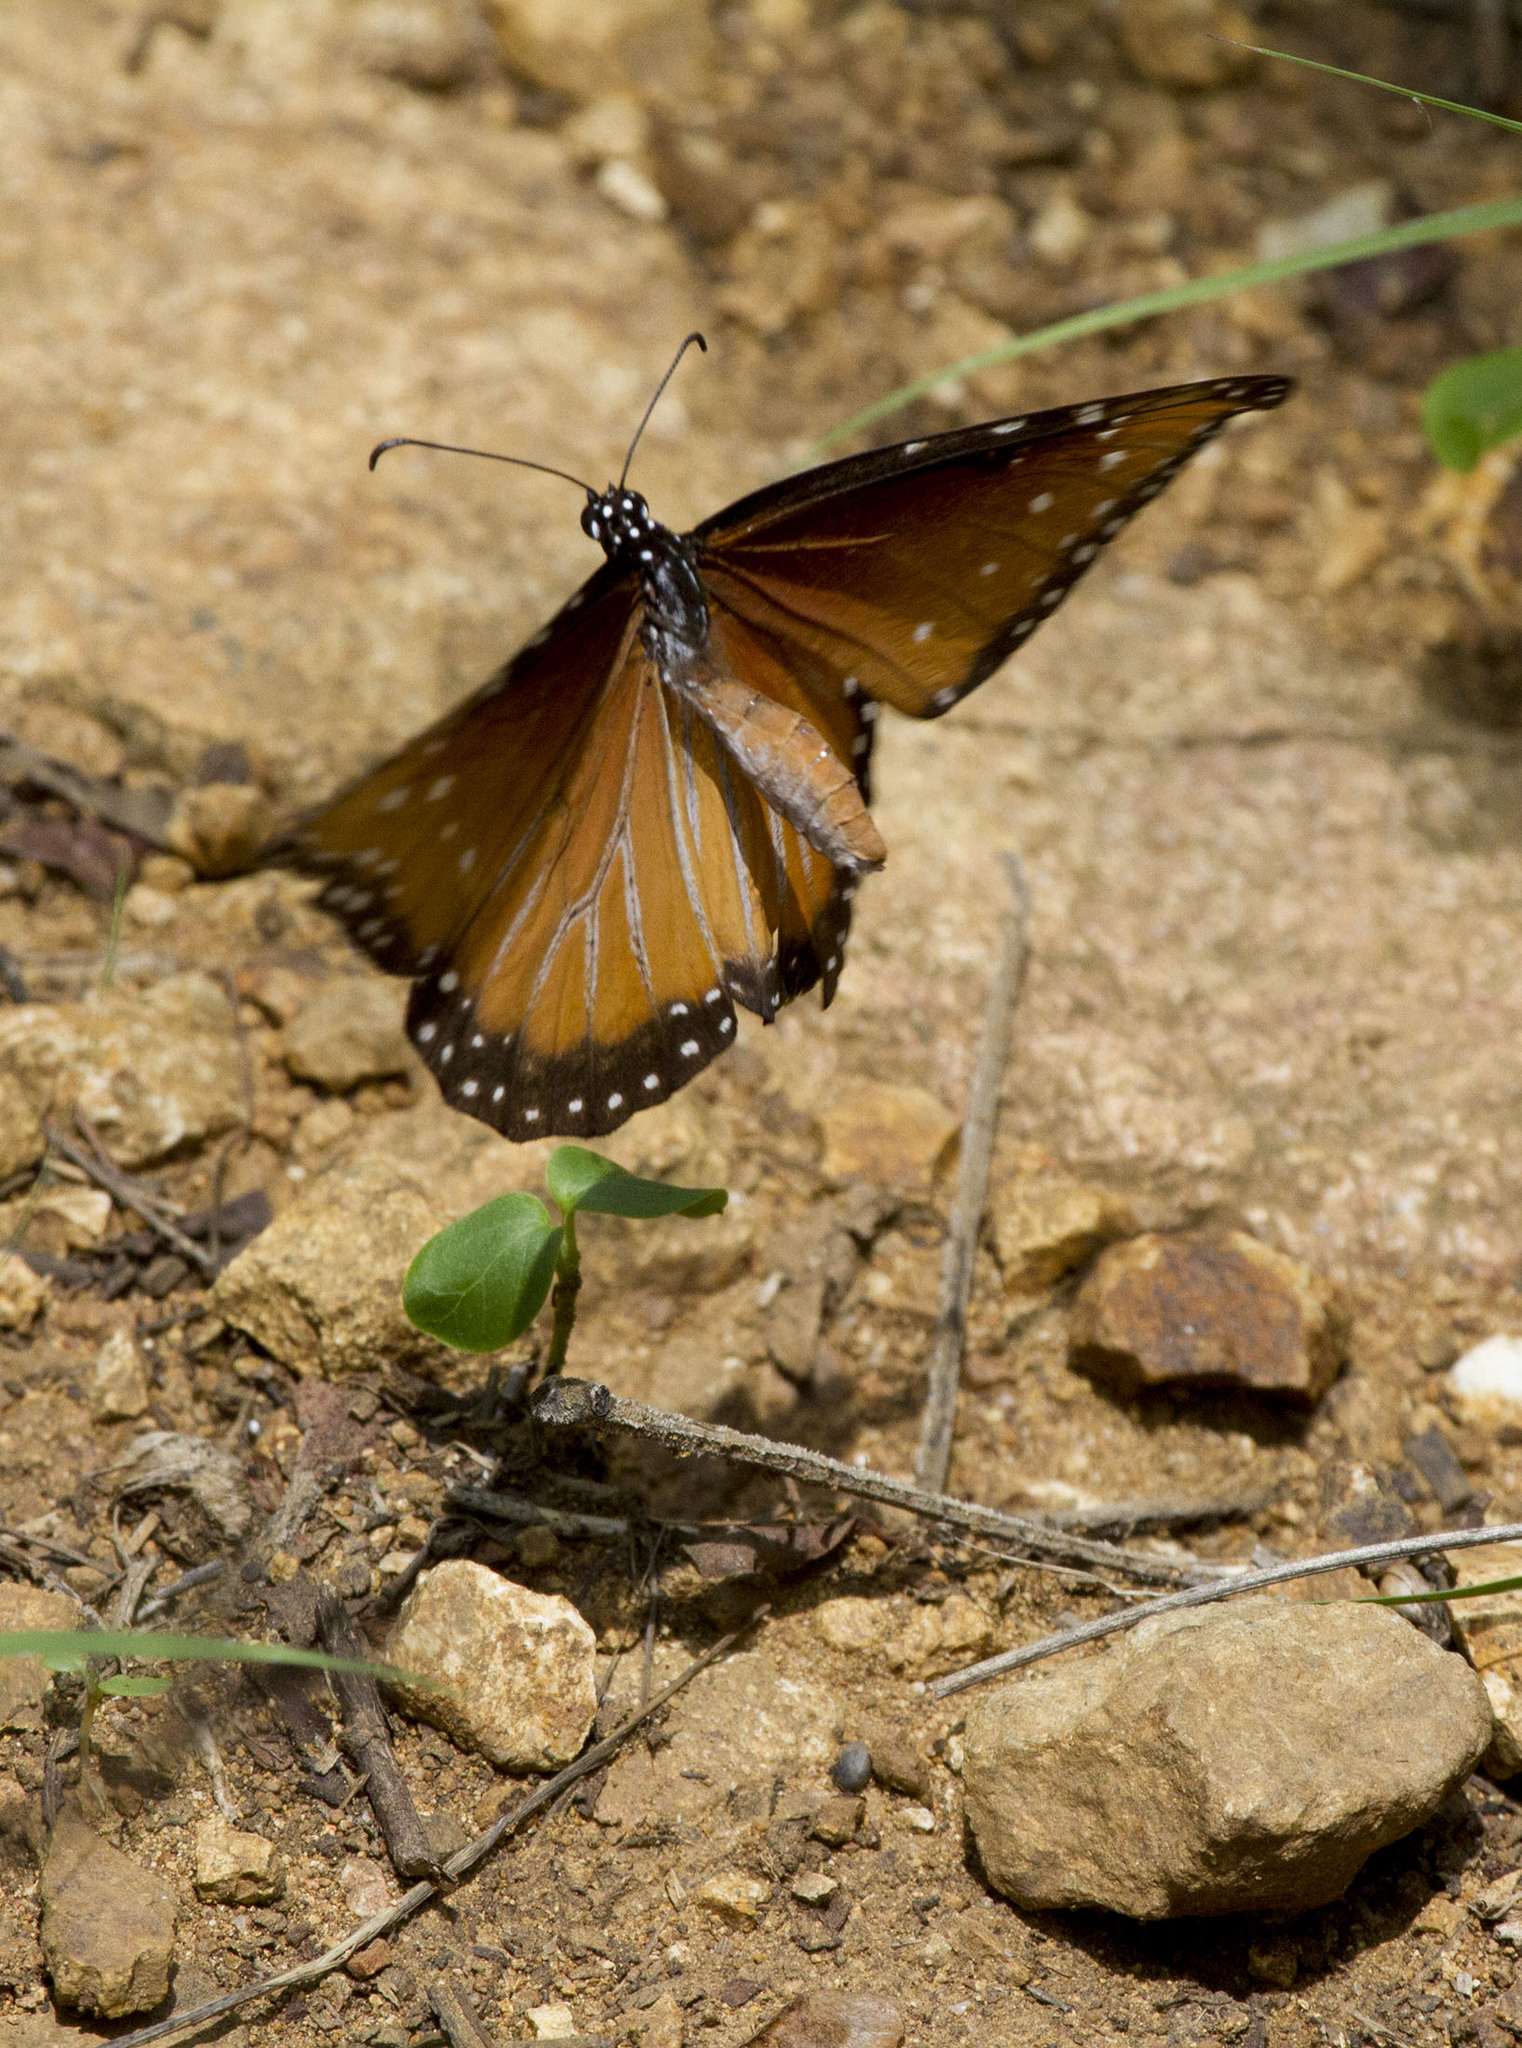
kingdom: Animalia
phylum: Arthropoda
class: Insecta
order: Lepidoptera
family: Nymphalidae
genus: Danaus
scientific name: Danaus gilippus
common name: Queen
